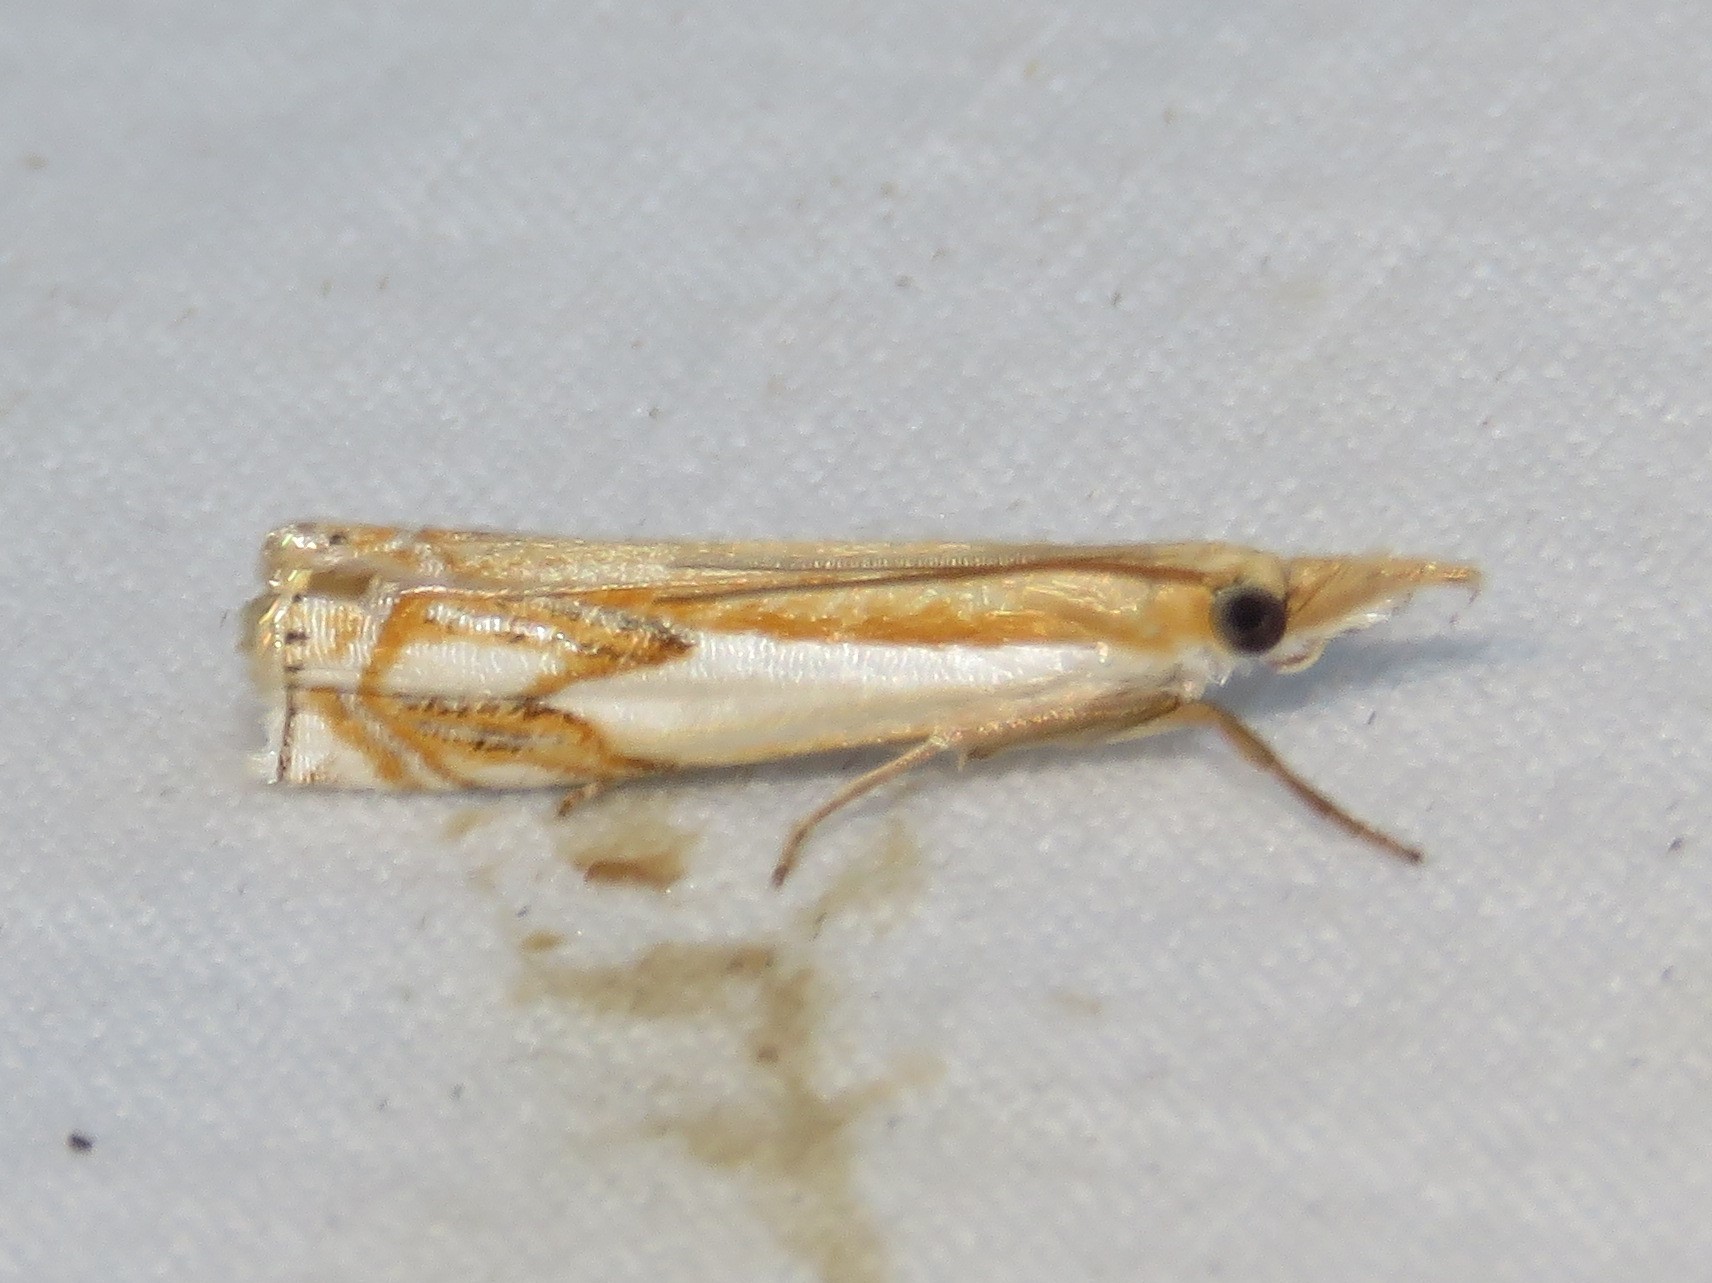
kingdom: Animalia
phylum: Arthropoda
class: Insecta
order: Lepidoptera
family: Crambidae
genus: Crambus
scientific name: Crambus agitatellus
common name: Double-banded grass-veneer
